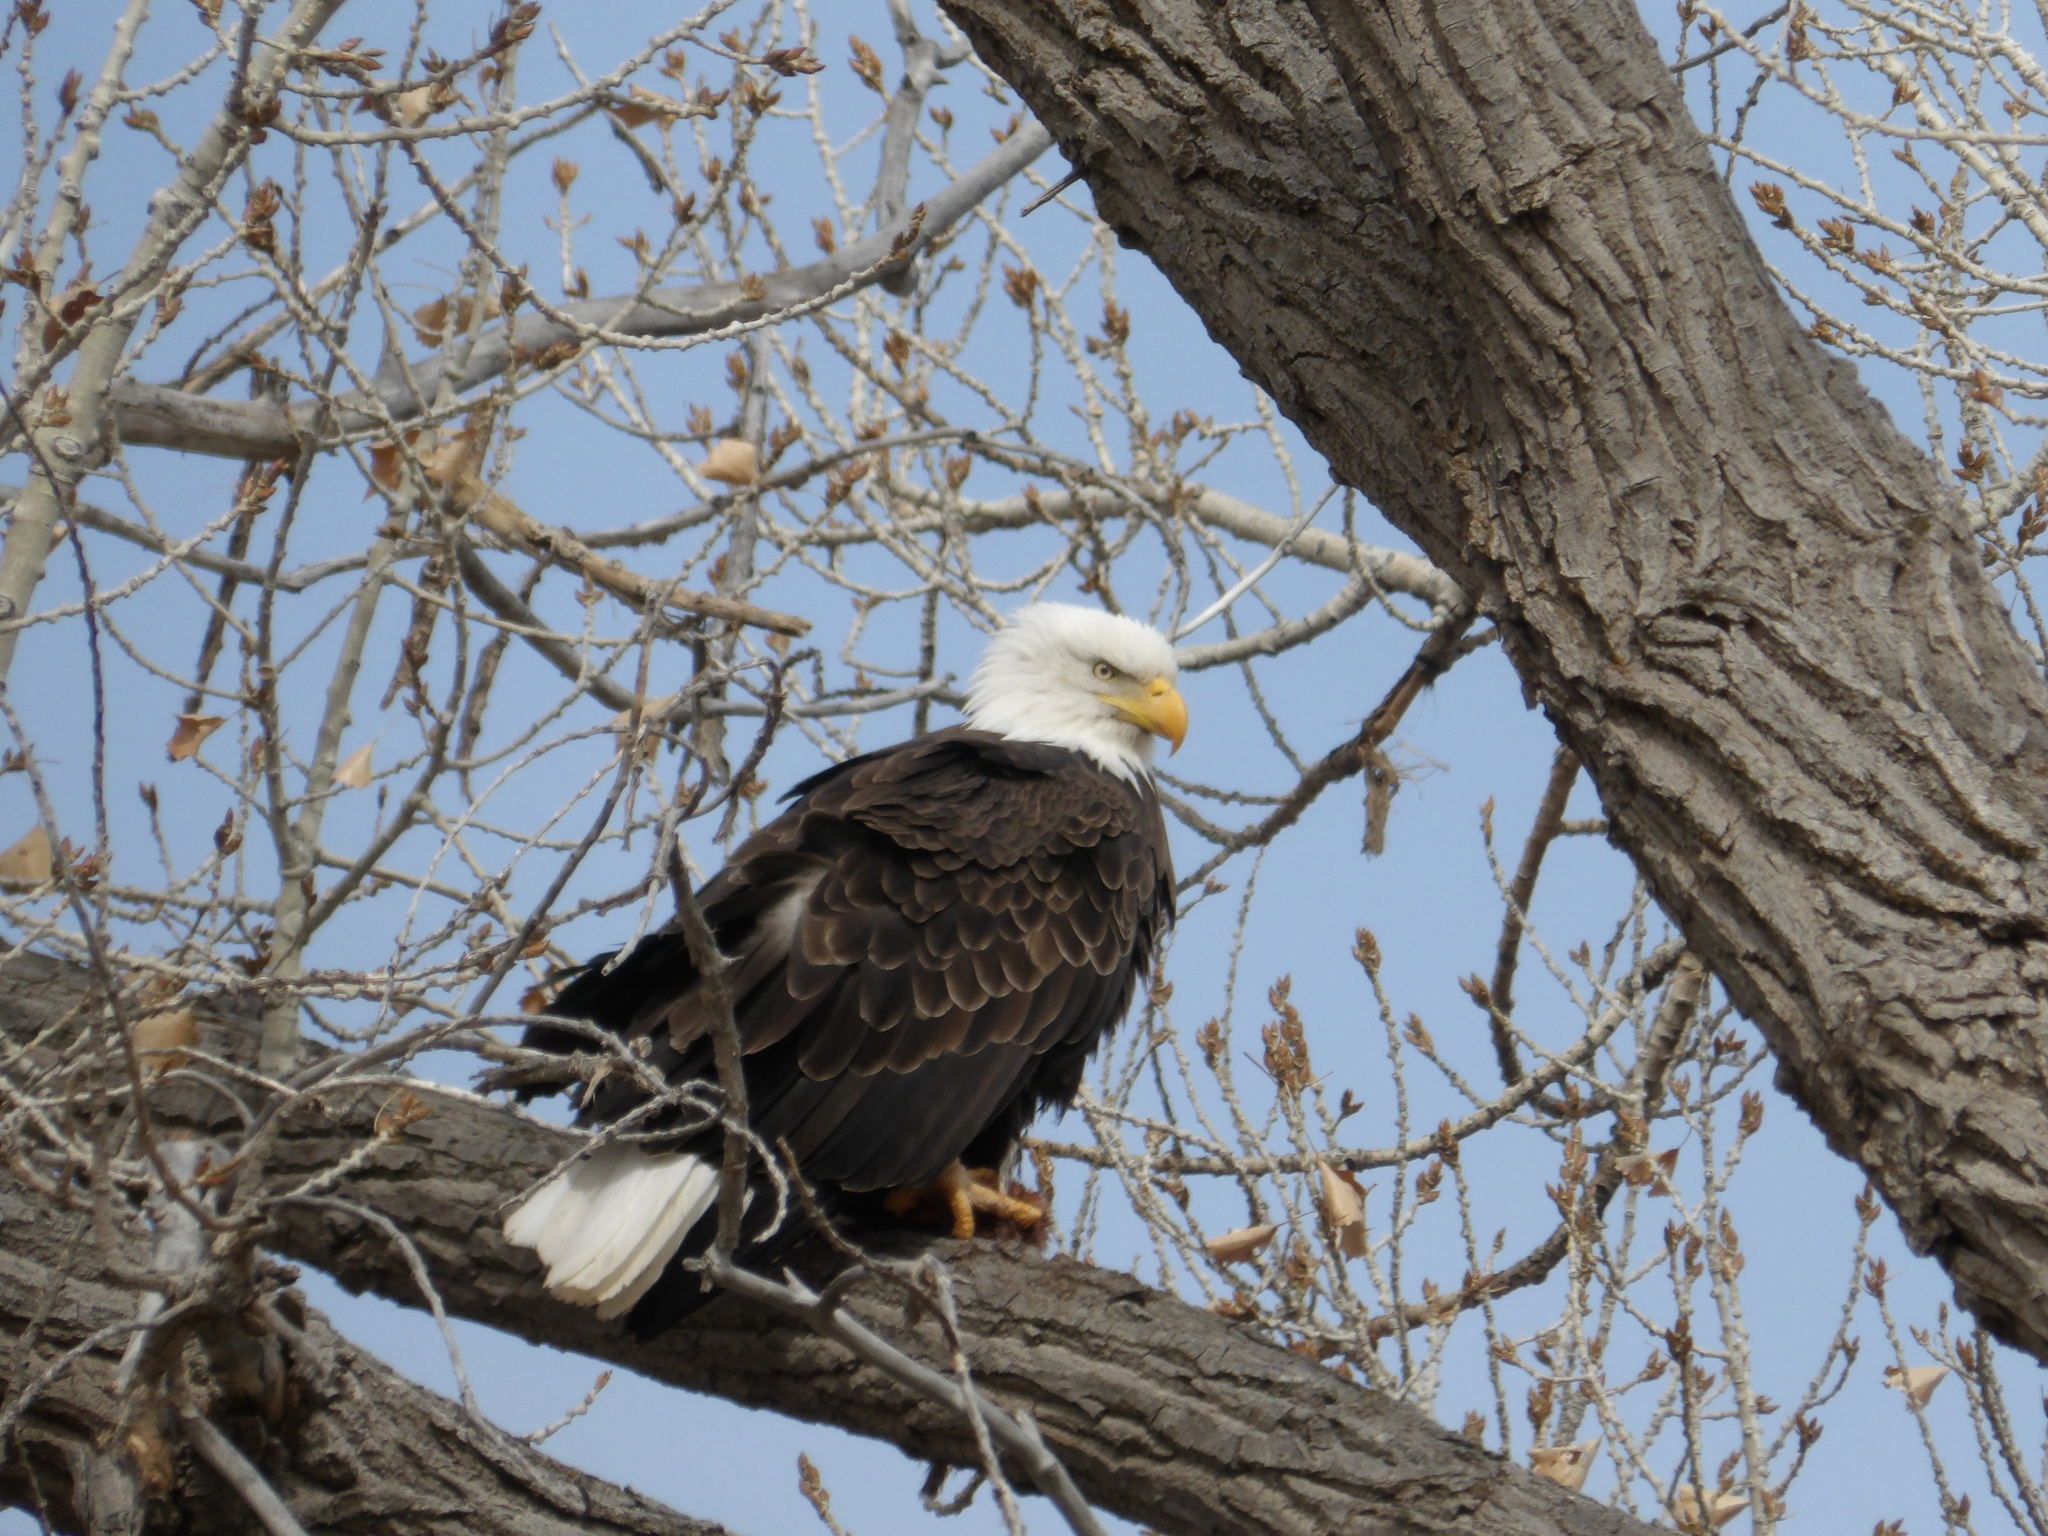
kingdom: Animalia
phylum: Chordata
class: Aves
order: Accipitriformes
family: Accipitridae
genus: Haliaeetus
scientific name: Haliaeetus leucocephalus
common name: Bald eagle
